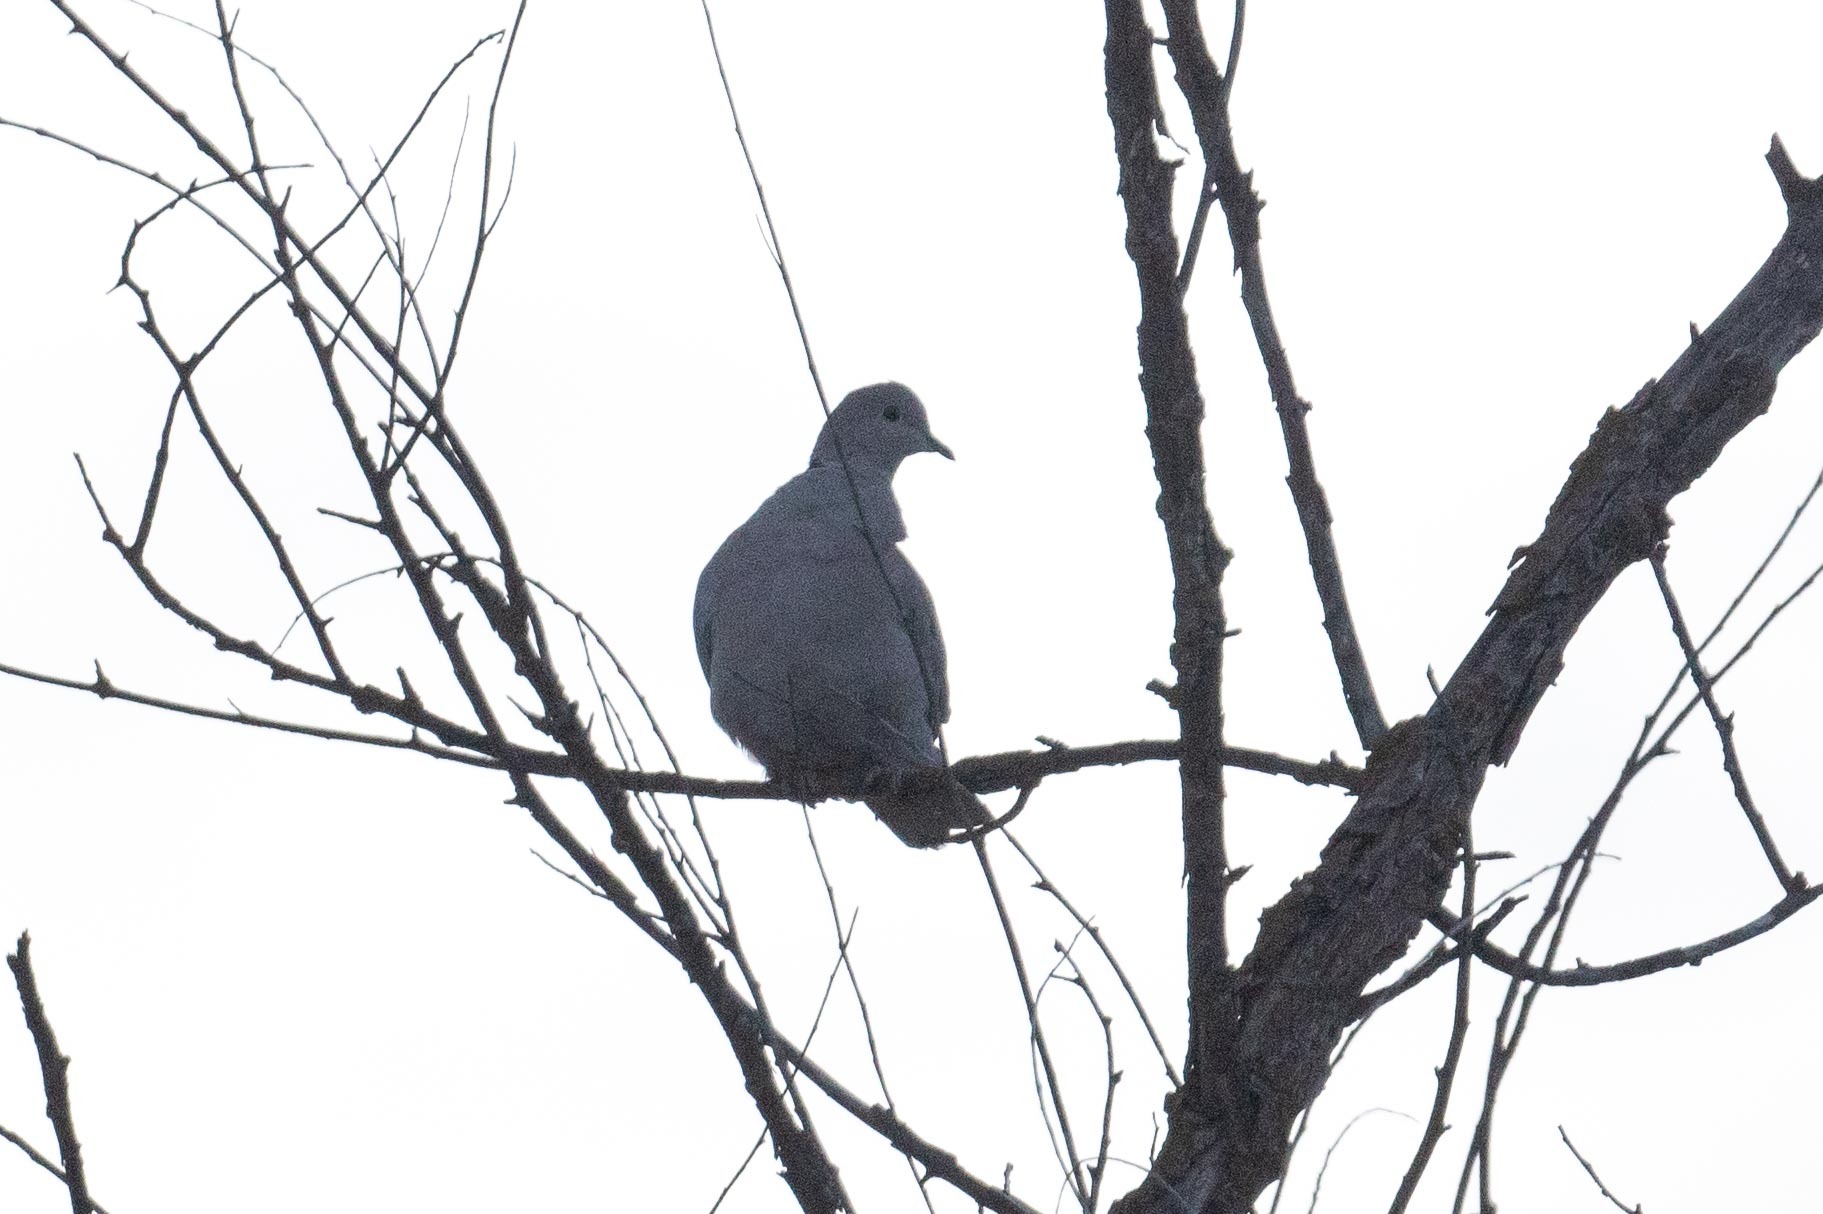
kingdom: Animalia
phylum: Chordata
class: Aves
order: Columbiformes
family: Columbidae
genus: Streptopelia
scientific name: Streptopelia decaocto
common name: Eurasian collared dove
